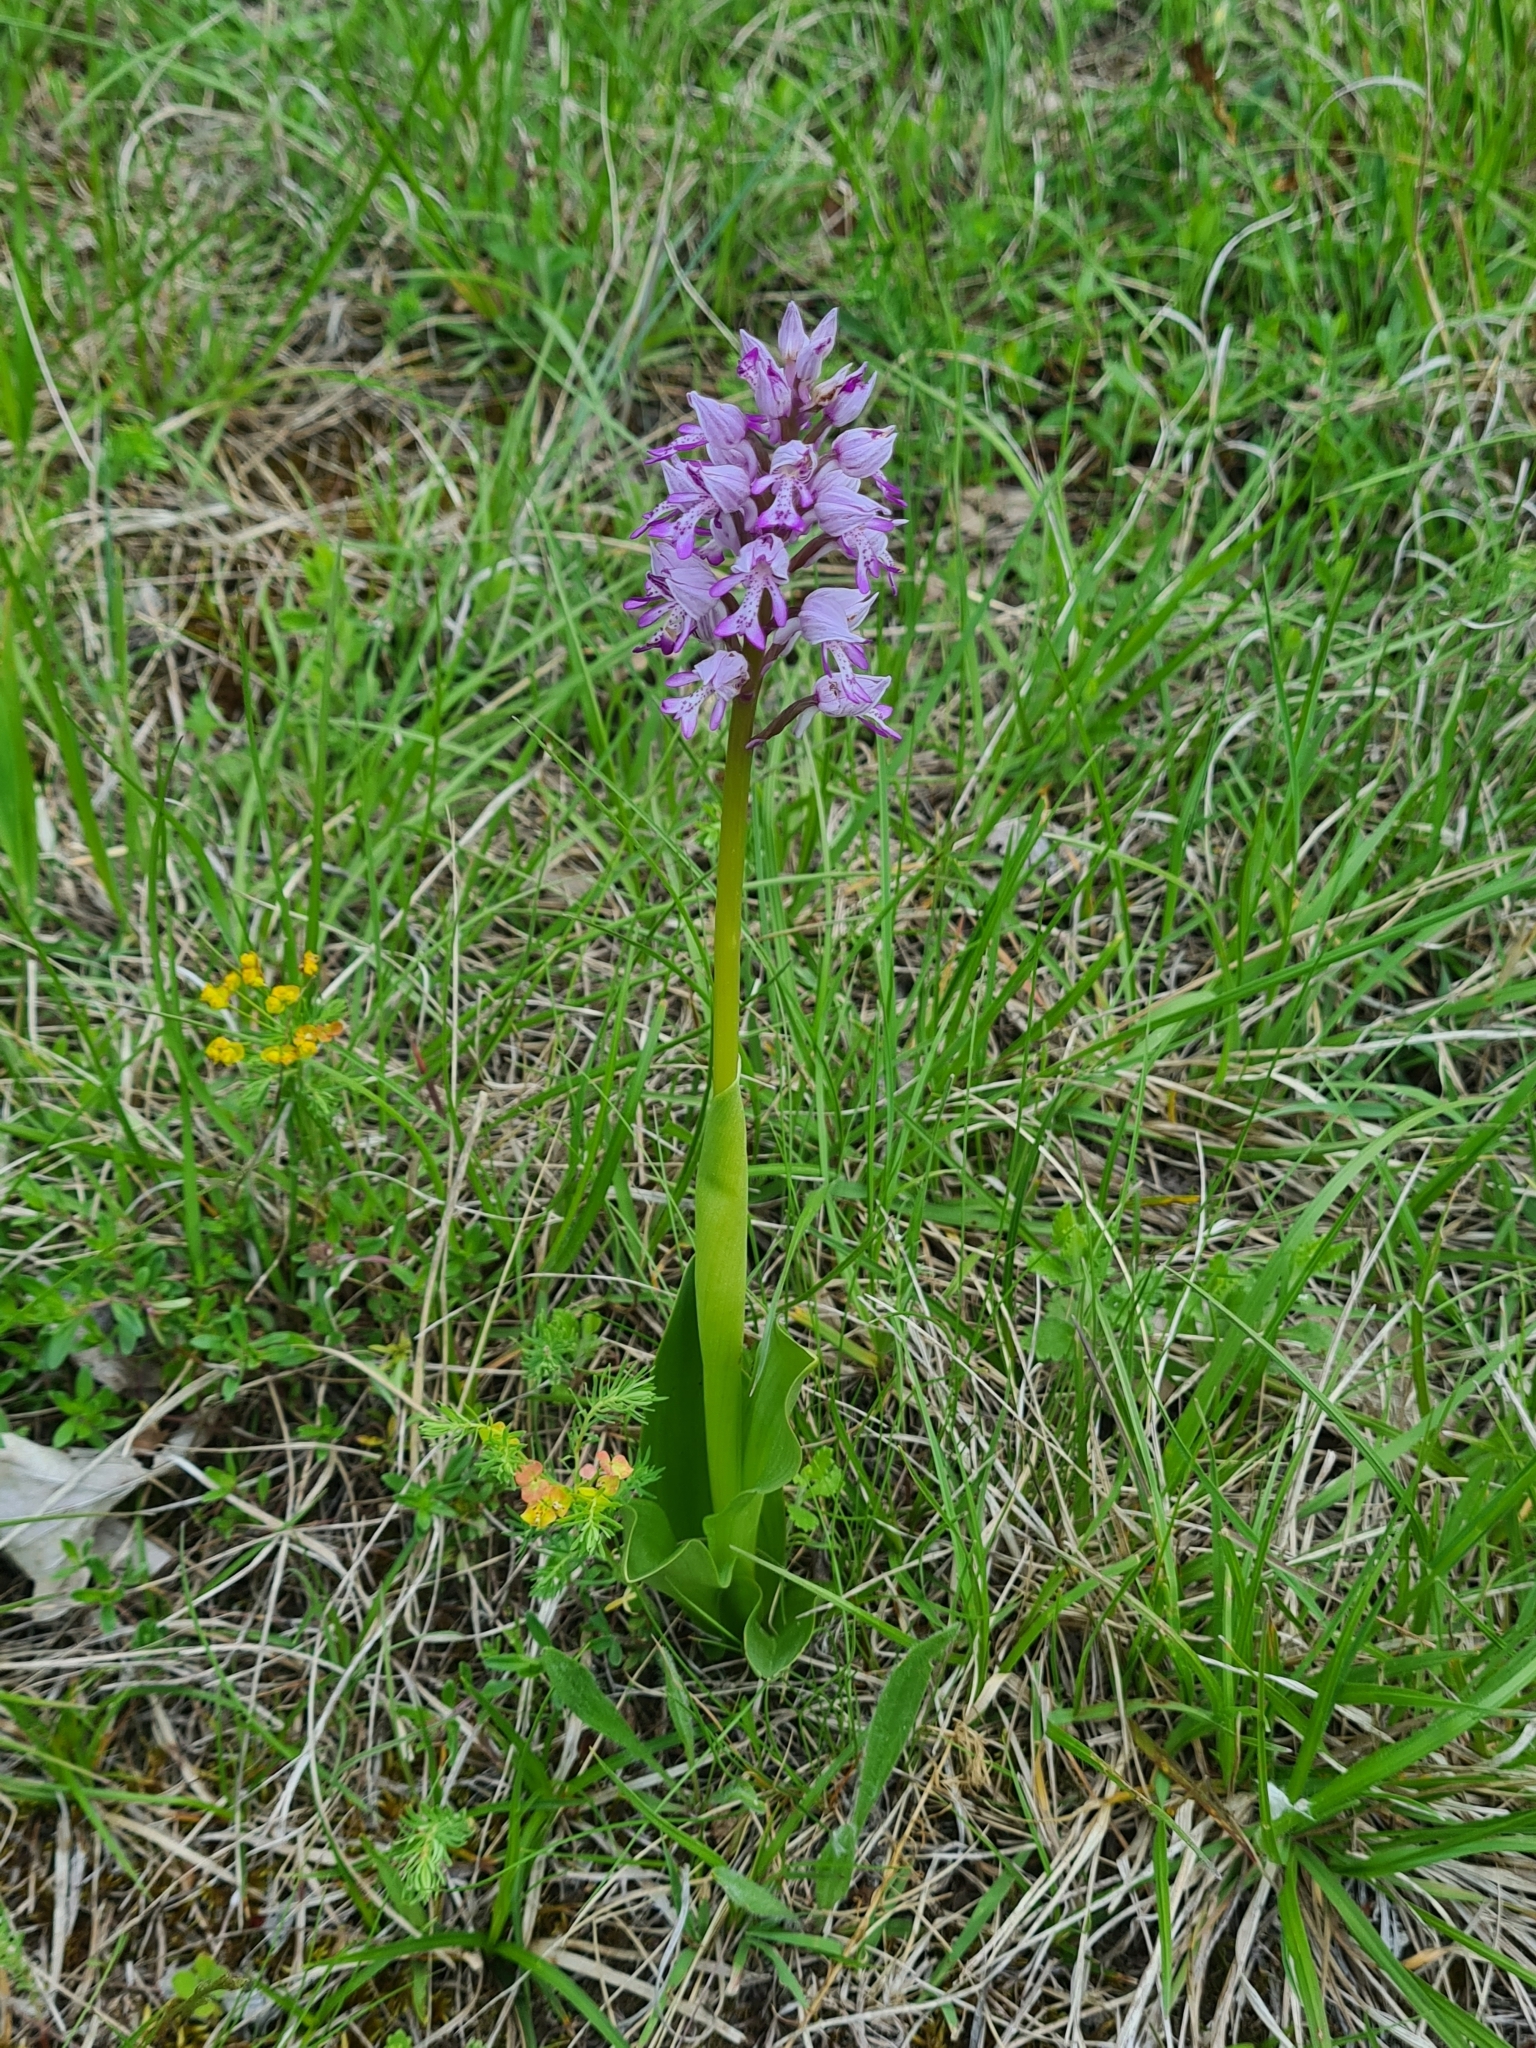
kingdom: Plantae
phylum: Tracheophyta
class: Liliopsida
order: Asparagales
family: Orchidaceae
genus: Orchis
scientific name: Orchis militaris
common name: Military orchid
